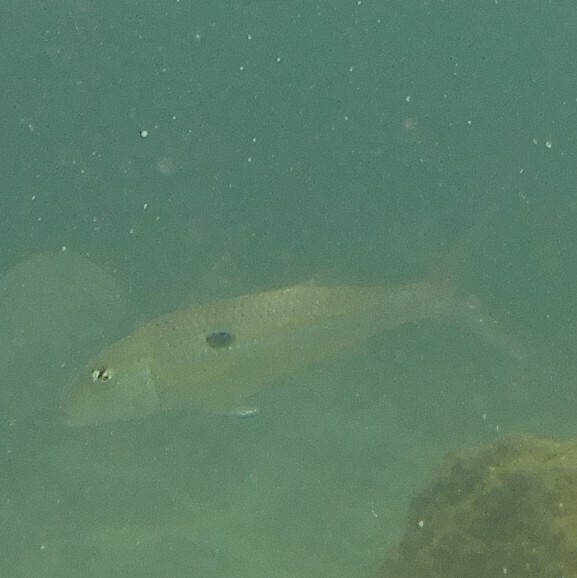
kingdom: Animalia
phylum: Chordata
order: Perciformes
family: Mullidae
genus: Mulloidichthys
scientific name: Mulloidichthys flavolineatus
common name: Yellowstripe goatfish
